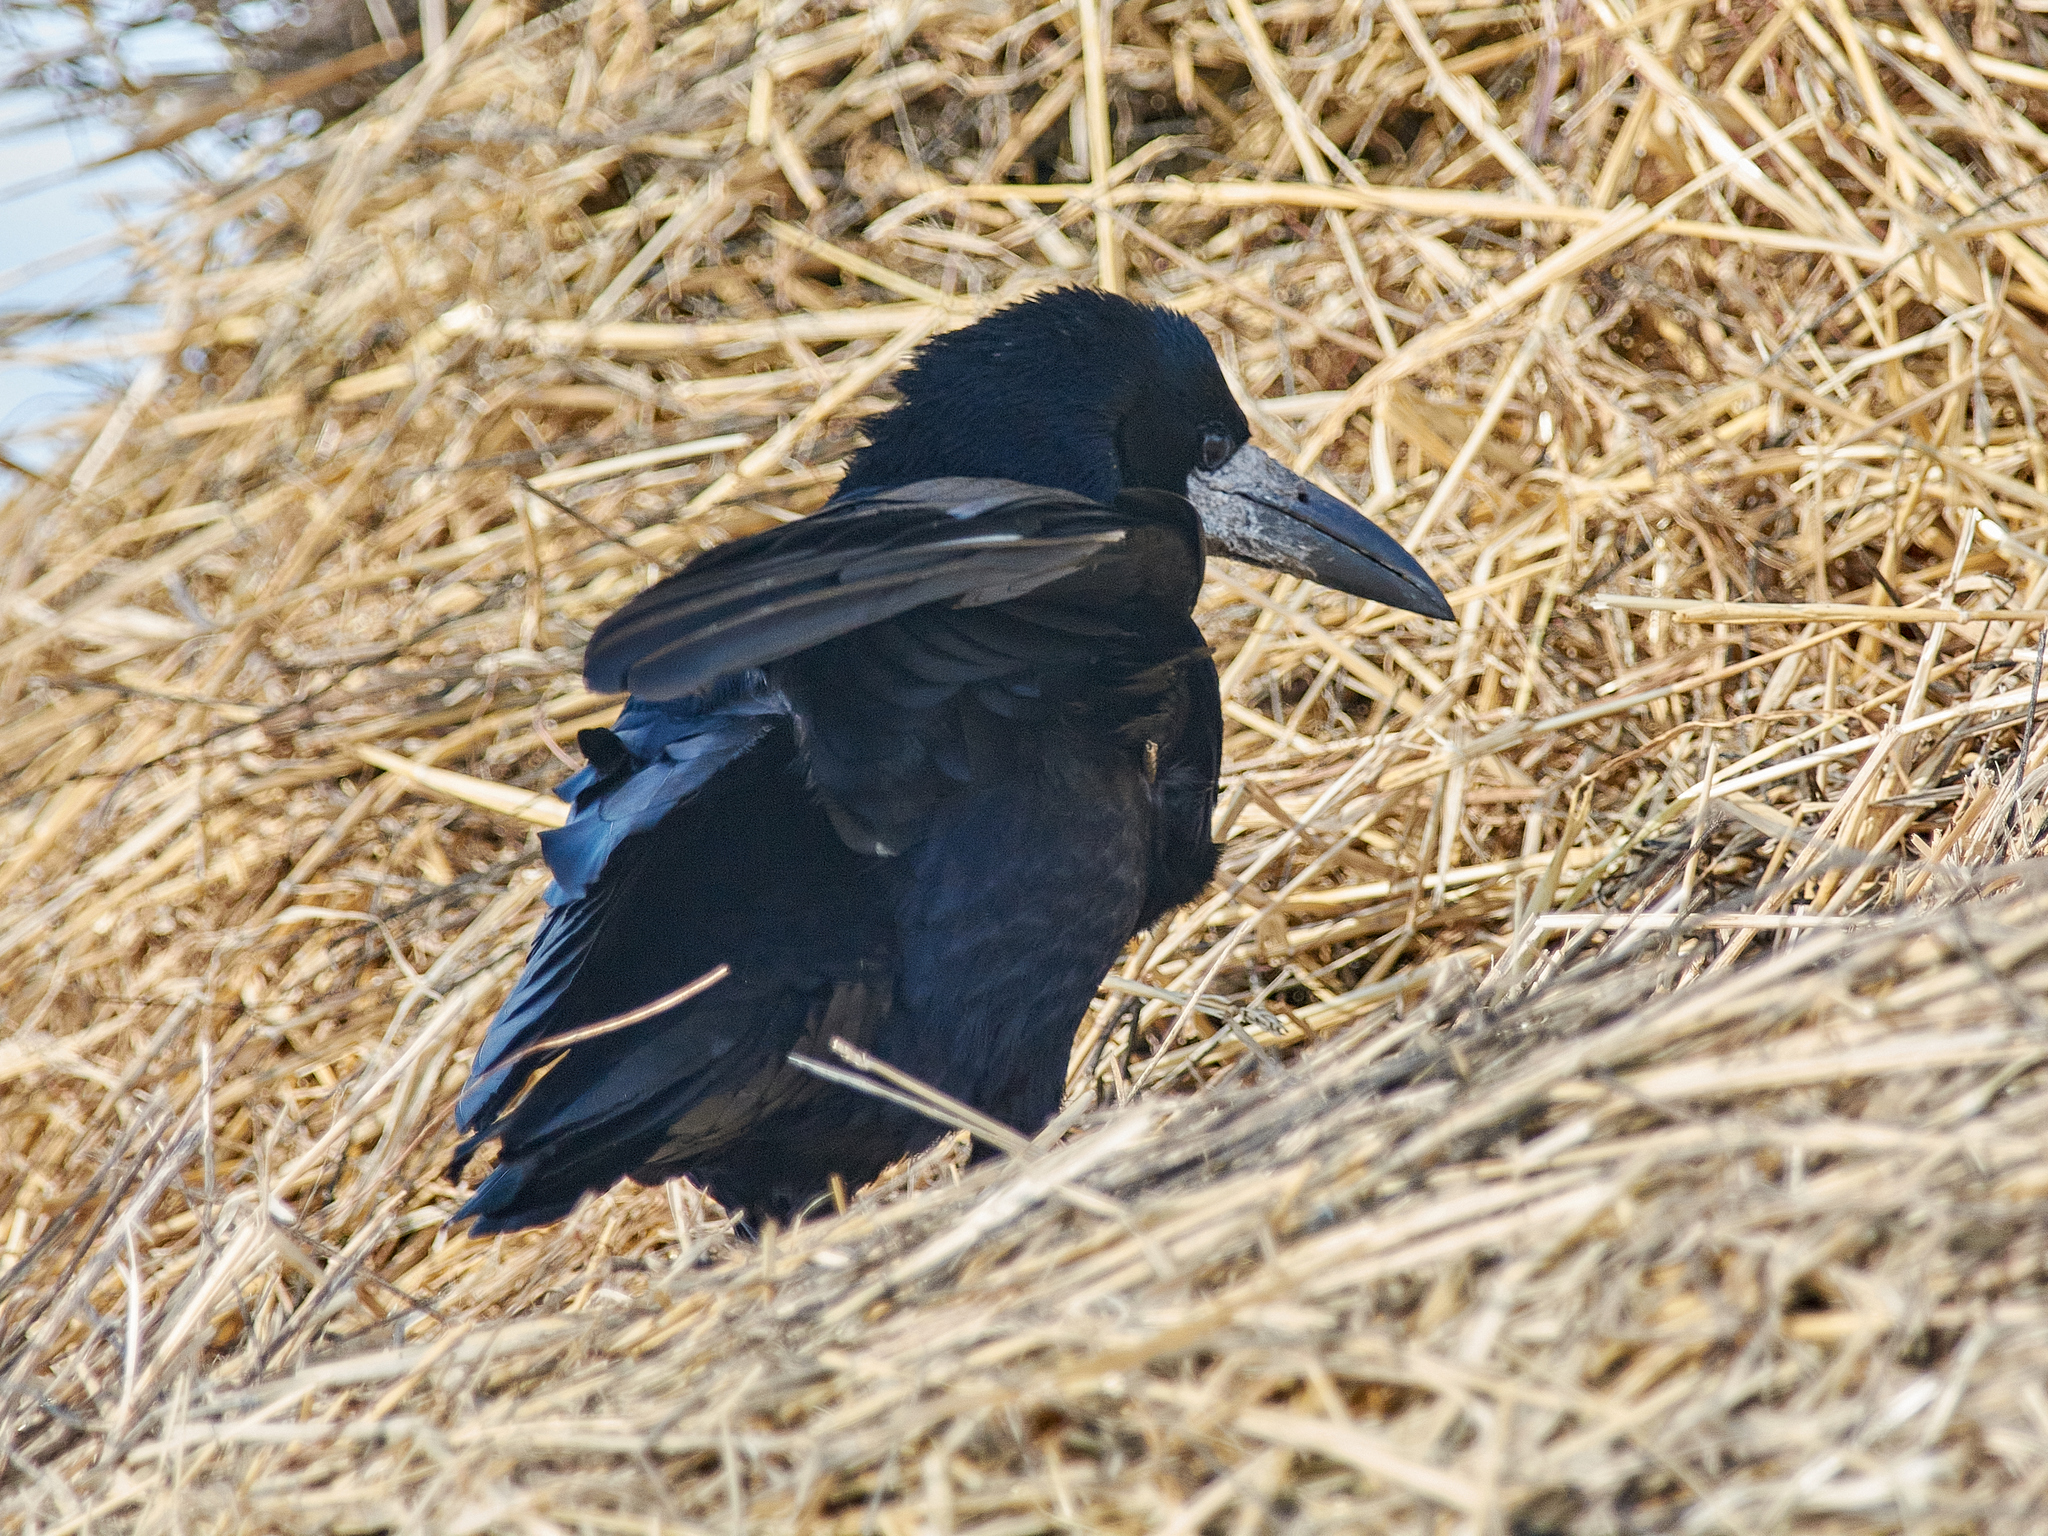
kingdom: Animalia
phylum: Chordata
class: Aves
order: Passeriformes
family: Corvidae
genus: Corvus
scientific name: Corvus frugilegus
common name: Rook
